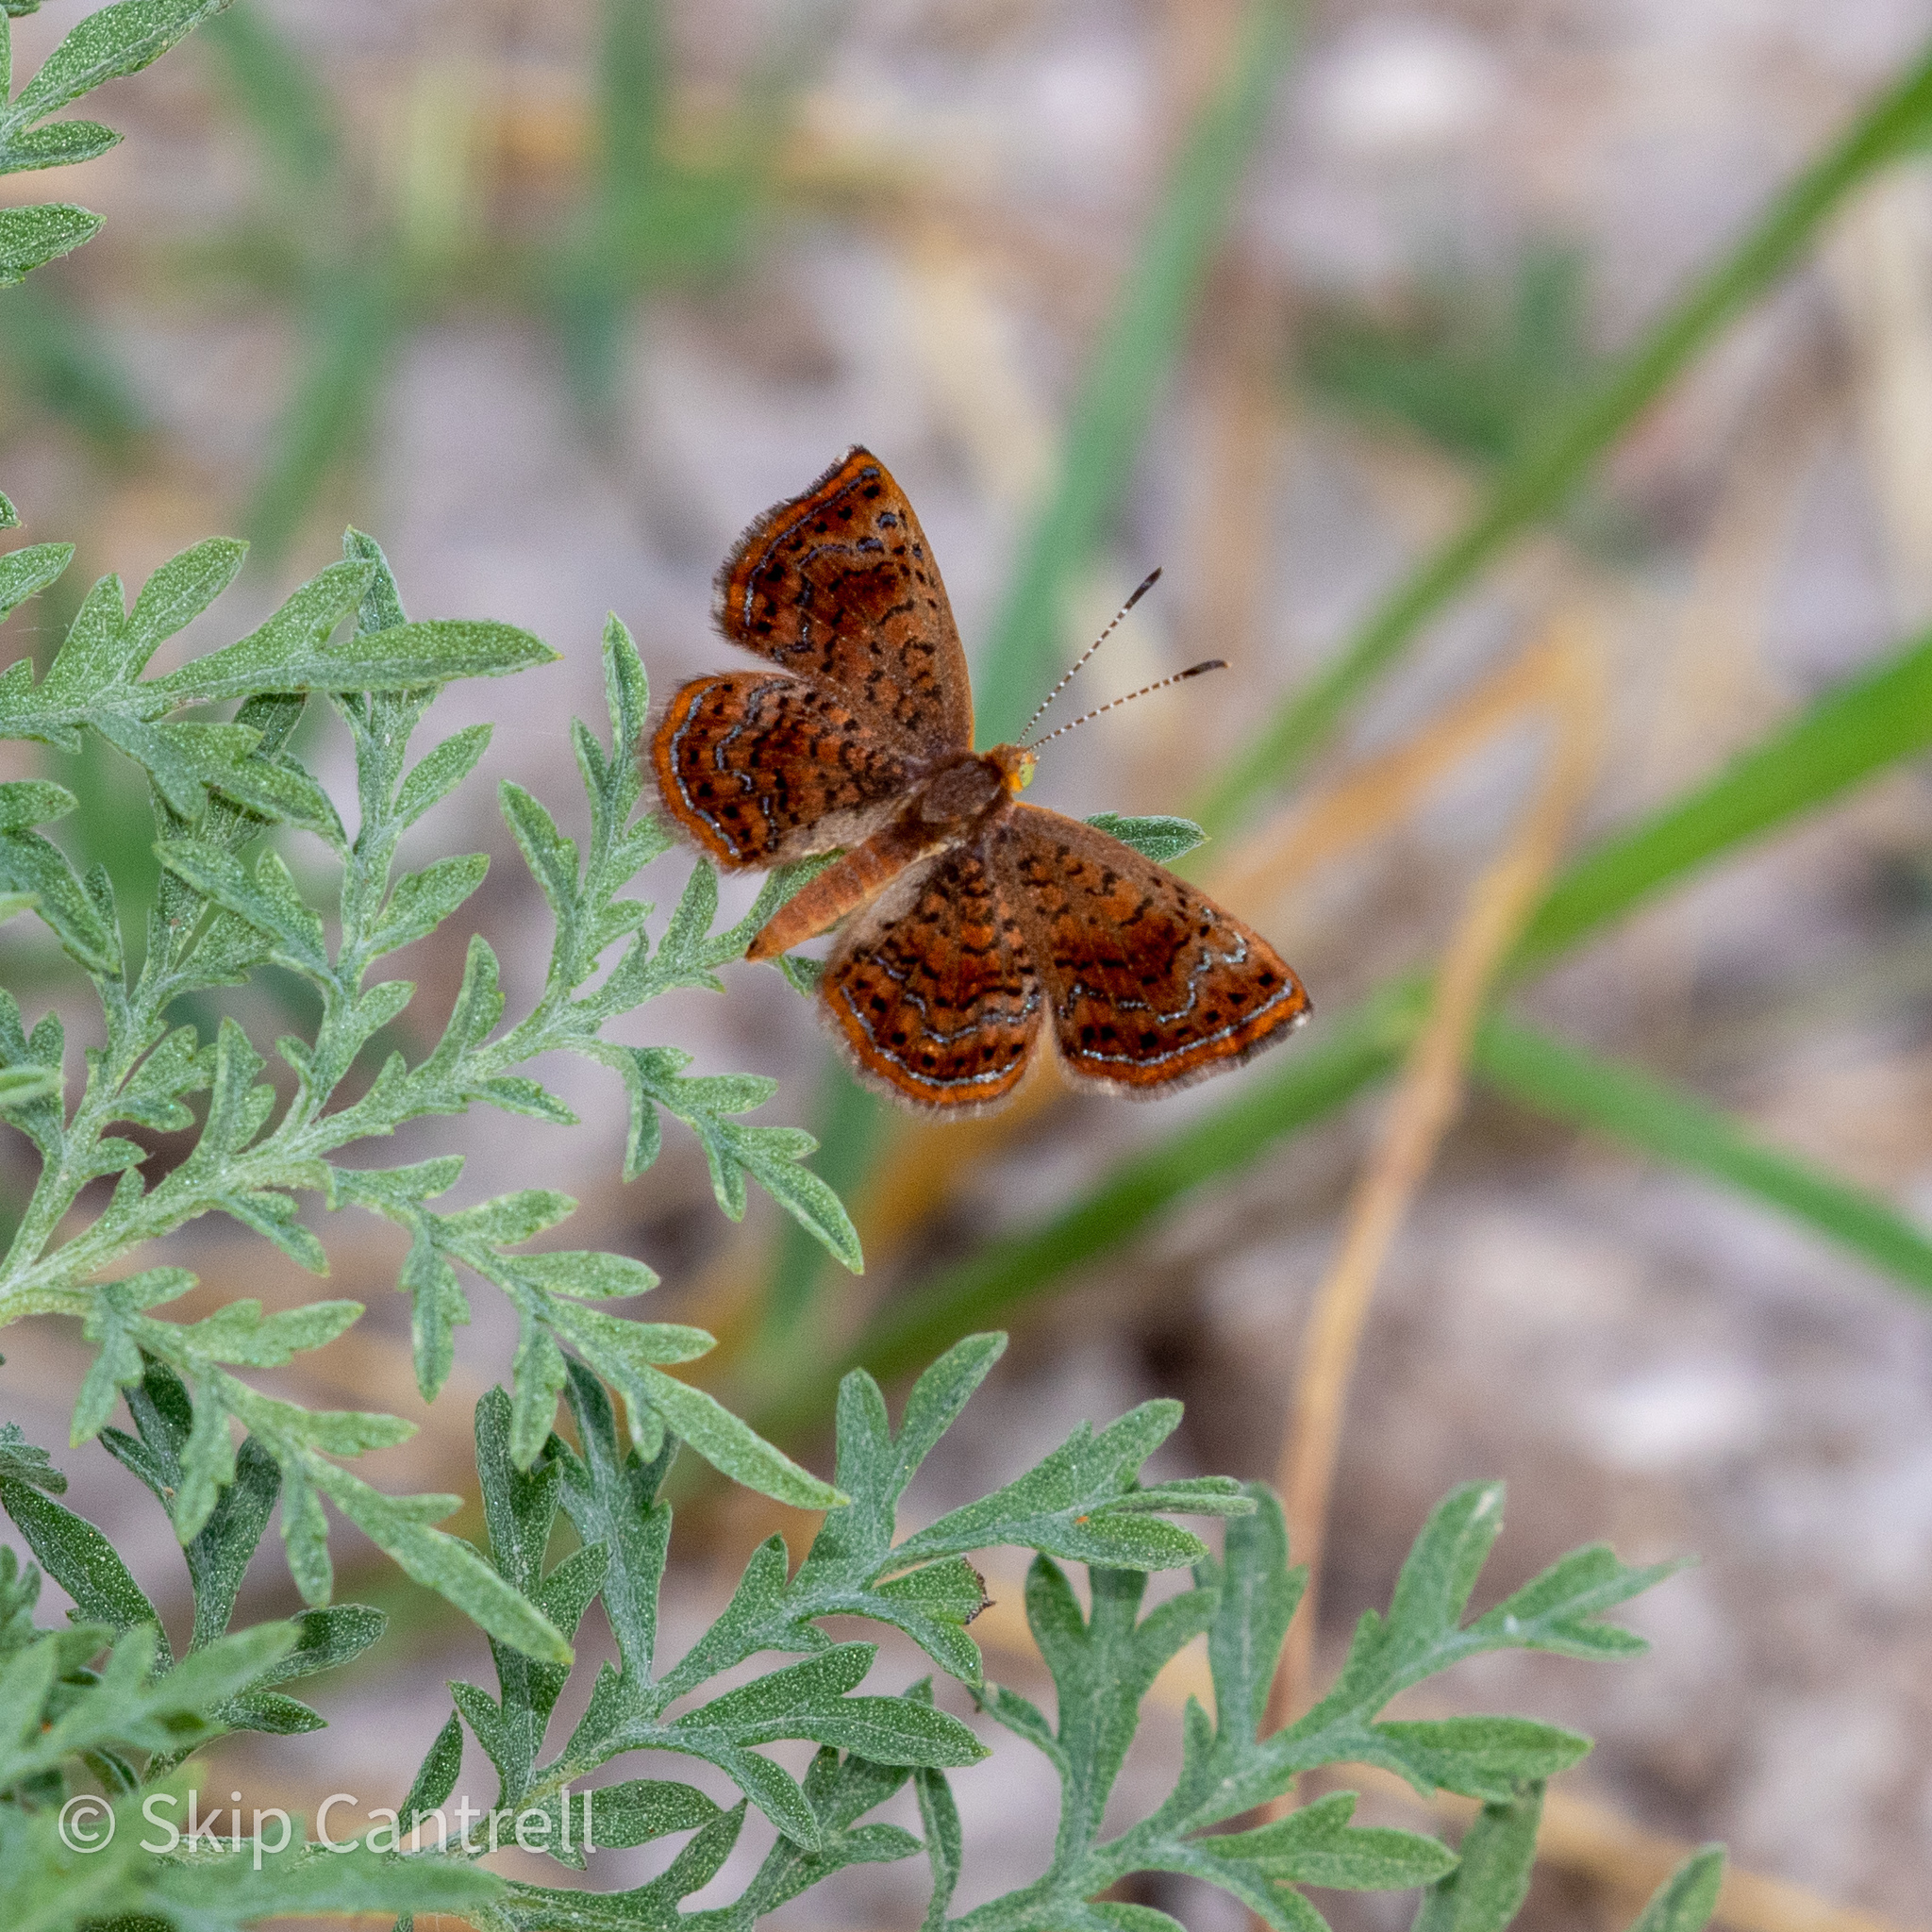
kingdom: Animalia
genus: Calephelis
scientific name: Calephelis perditalis
